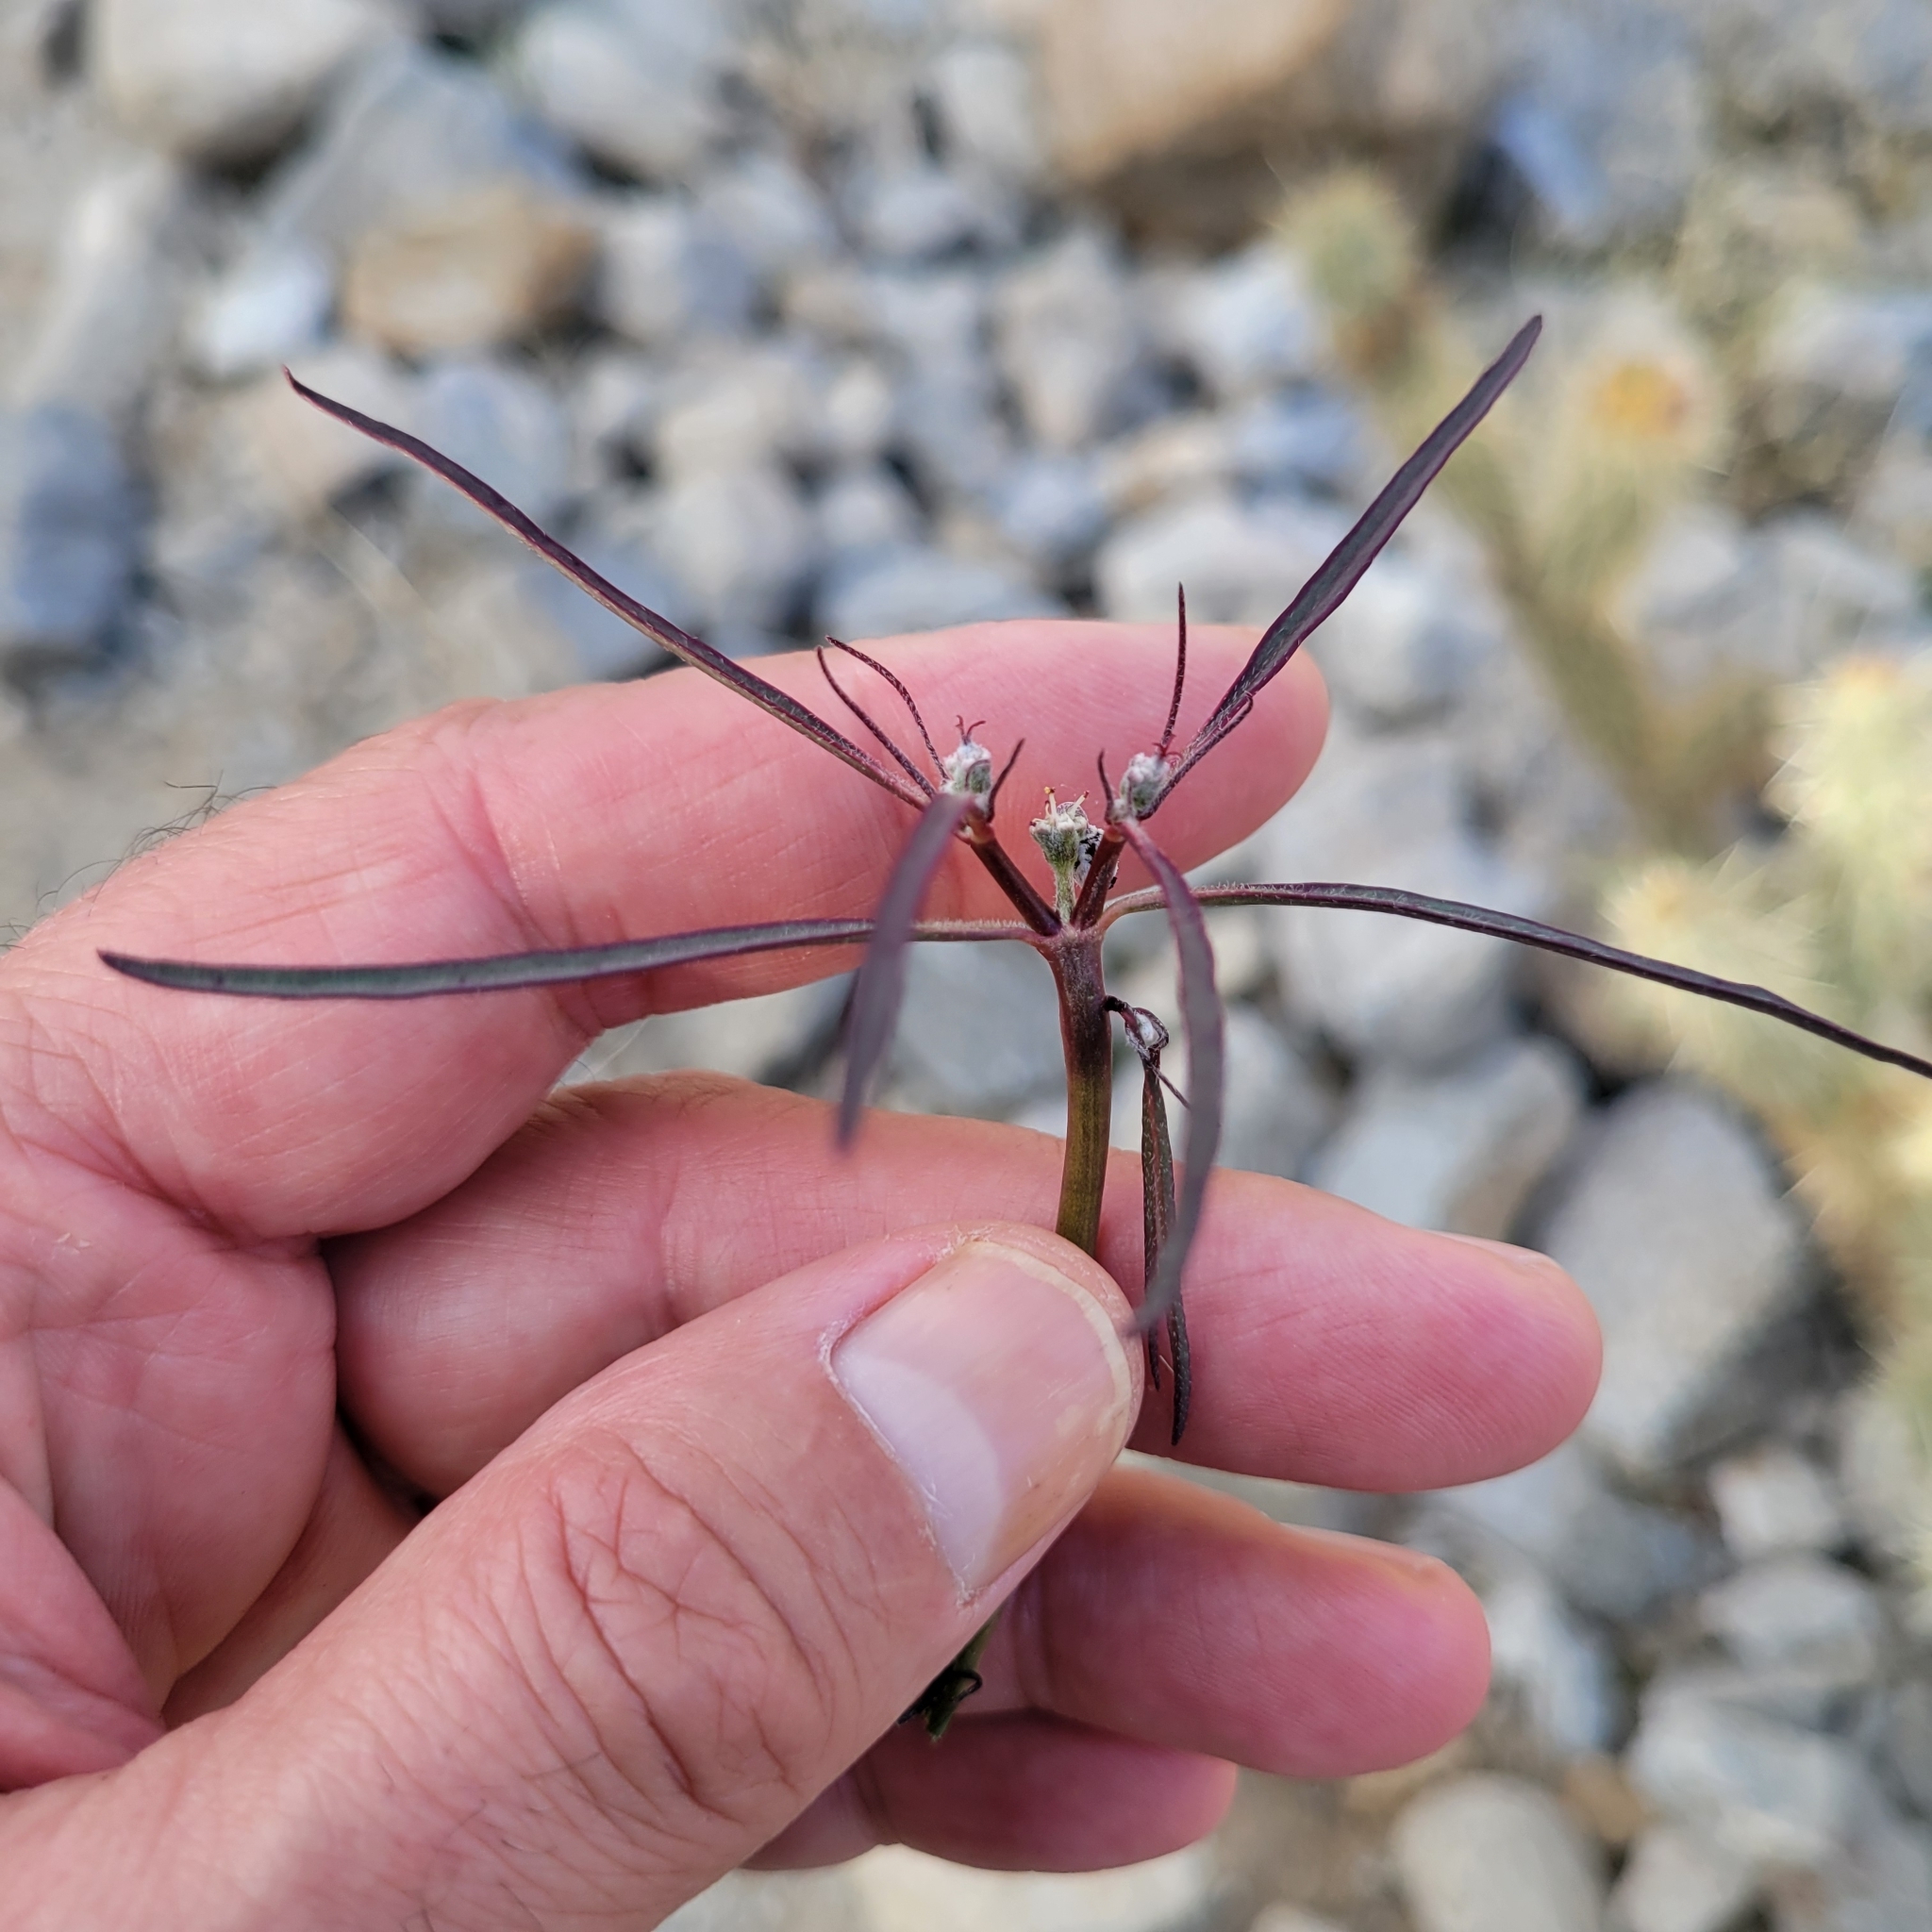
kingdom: Plantae
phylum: Tracheophyta
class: Magnoliopsida
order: Malpighiales
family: Euphorbiaceae
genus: Euphorbia
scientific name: Euphorbia eriantha
